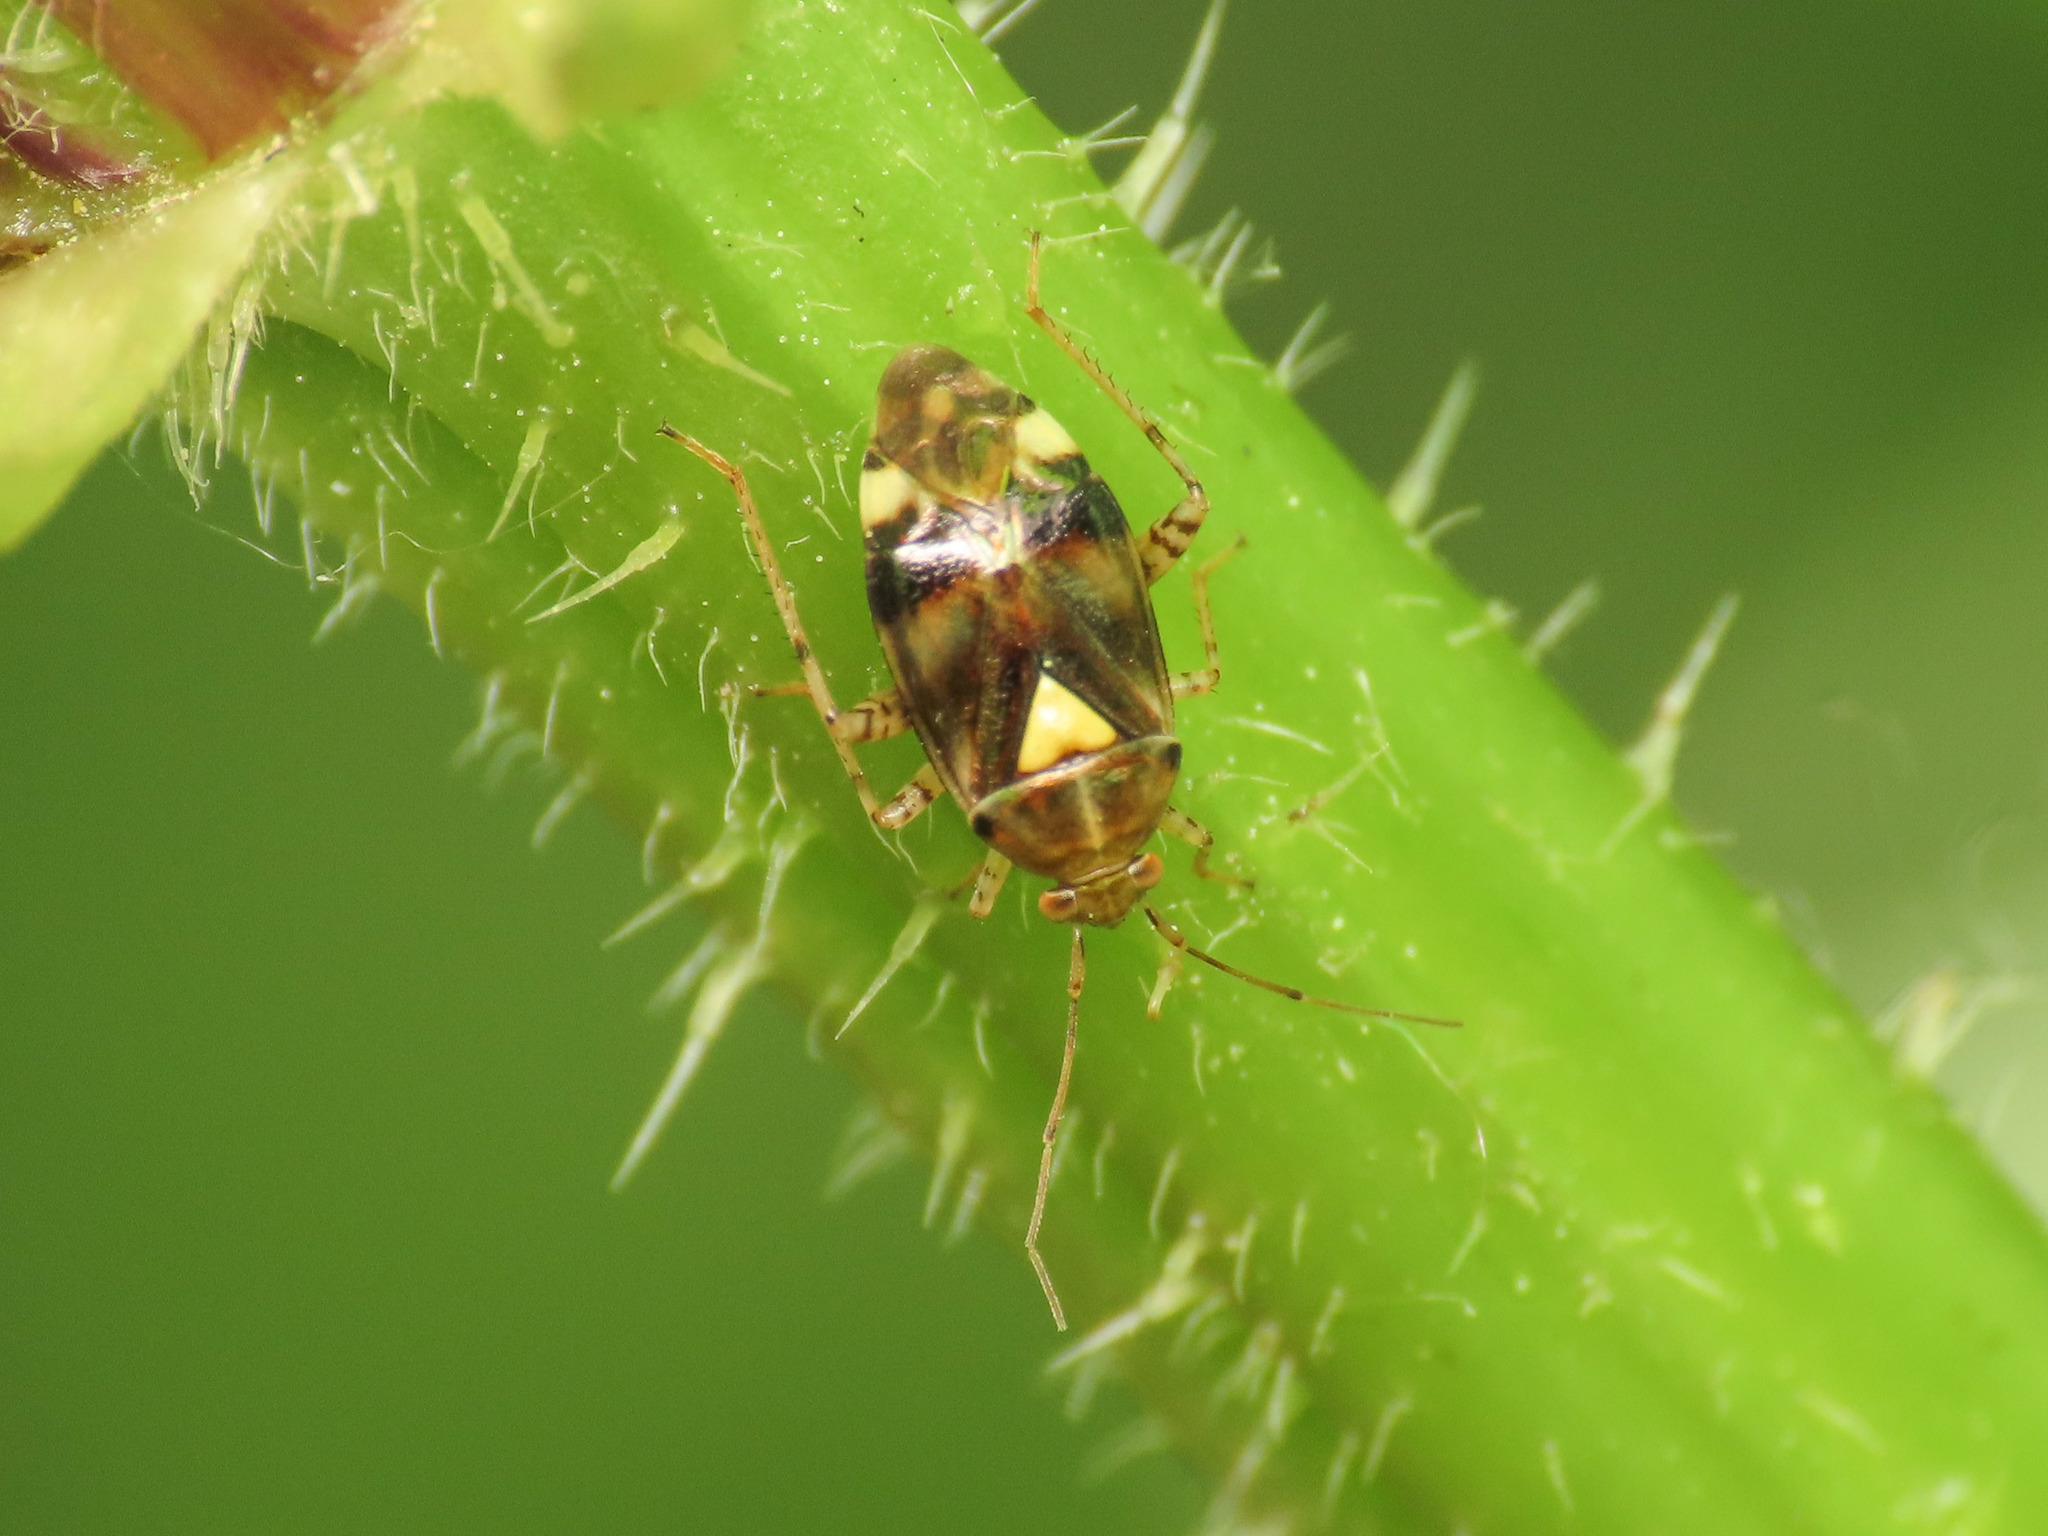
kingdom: Animalia
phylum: Arthropoda
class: Insecta
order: Hemiptera
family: Miridae
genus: Liocoris
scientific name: Liocoris tripustulatus
